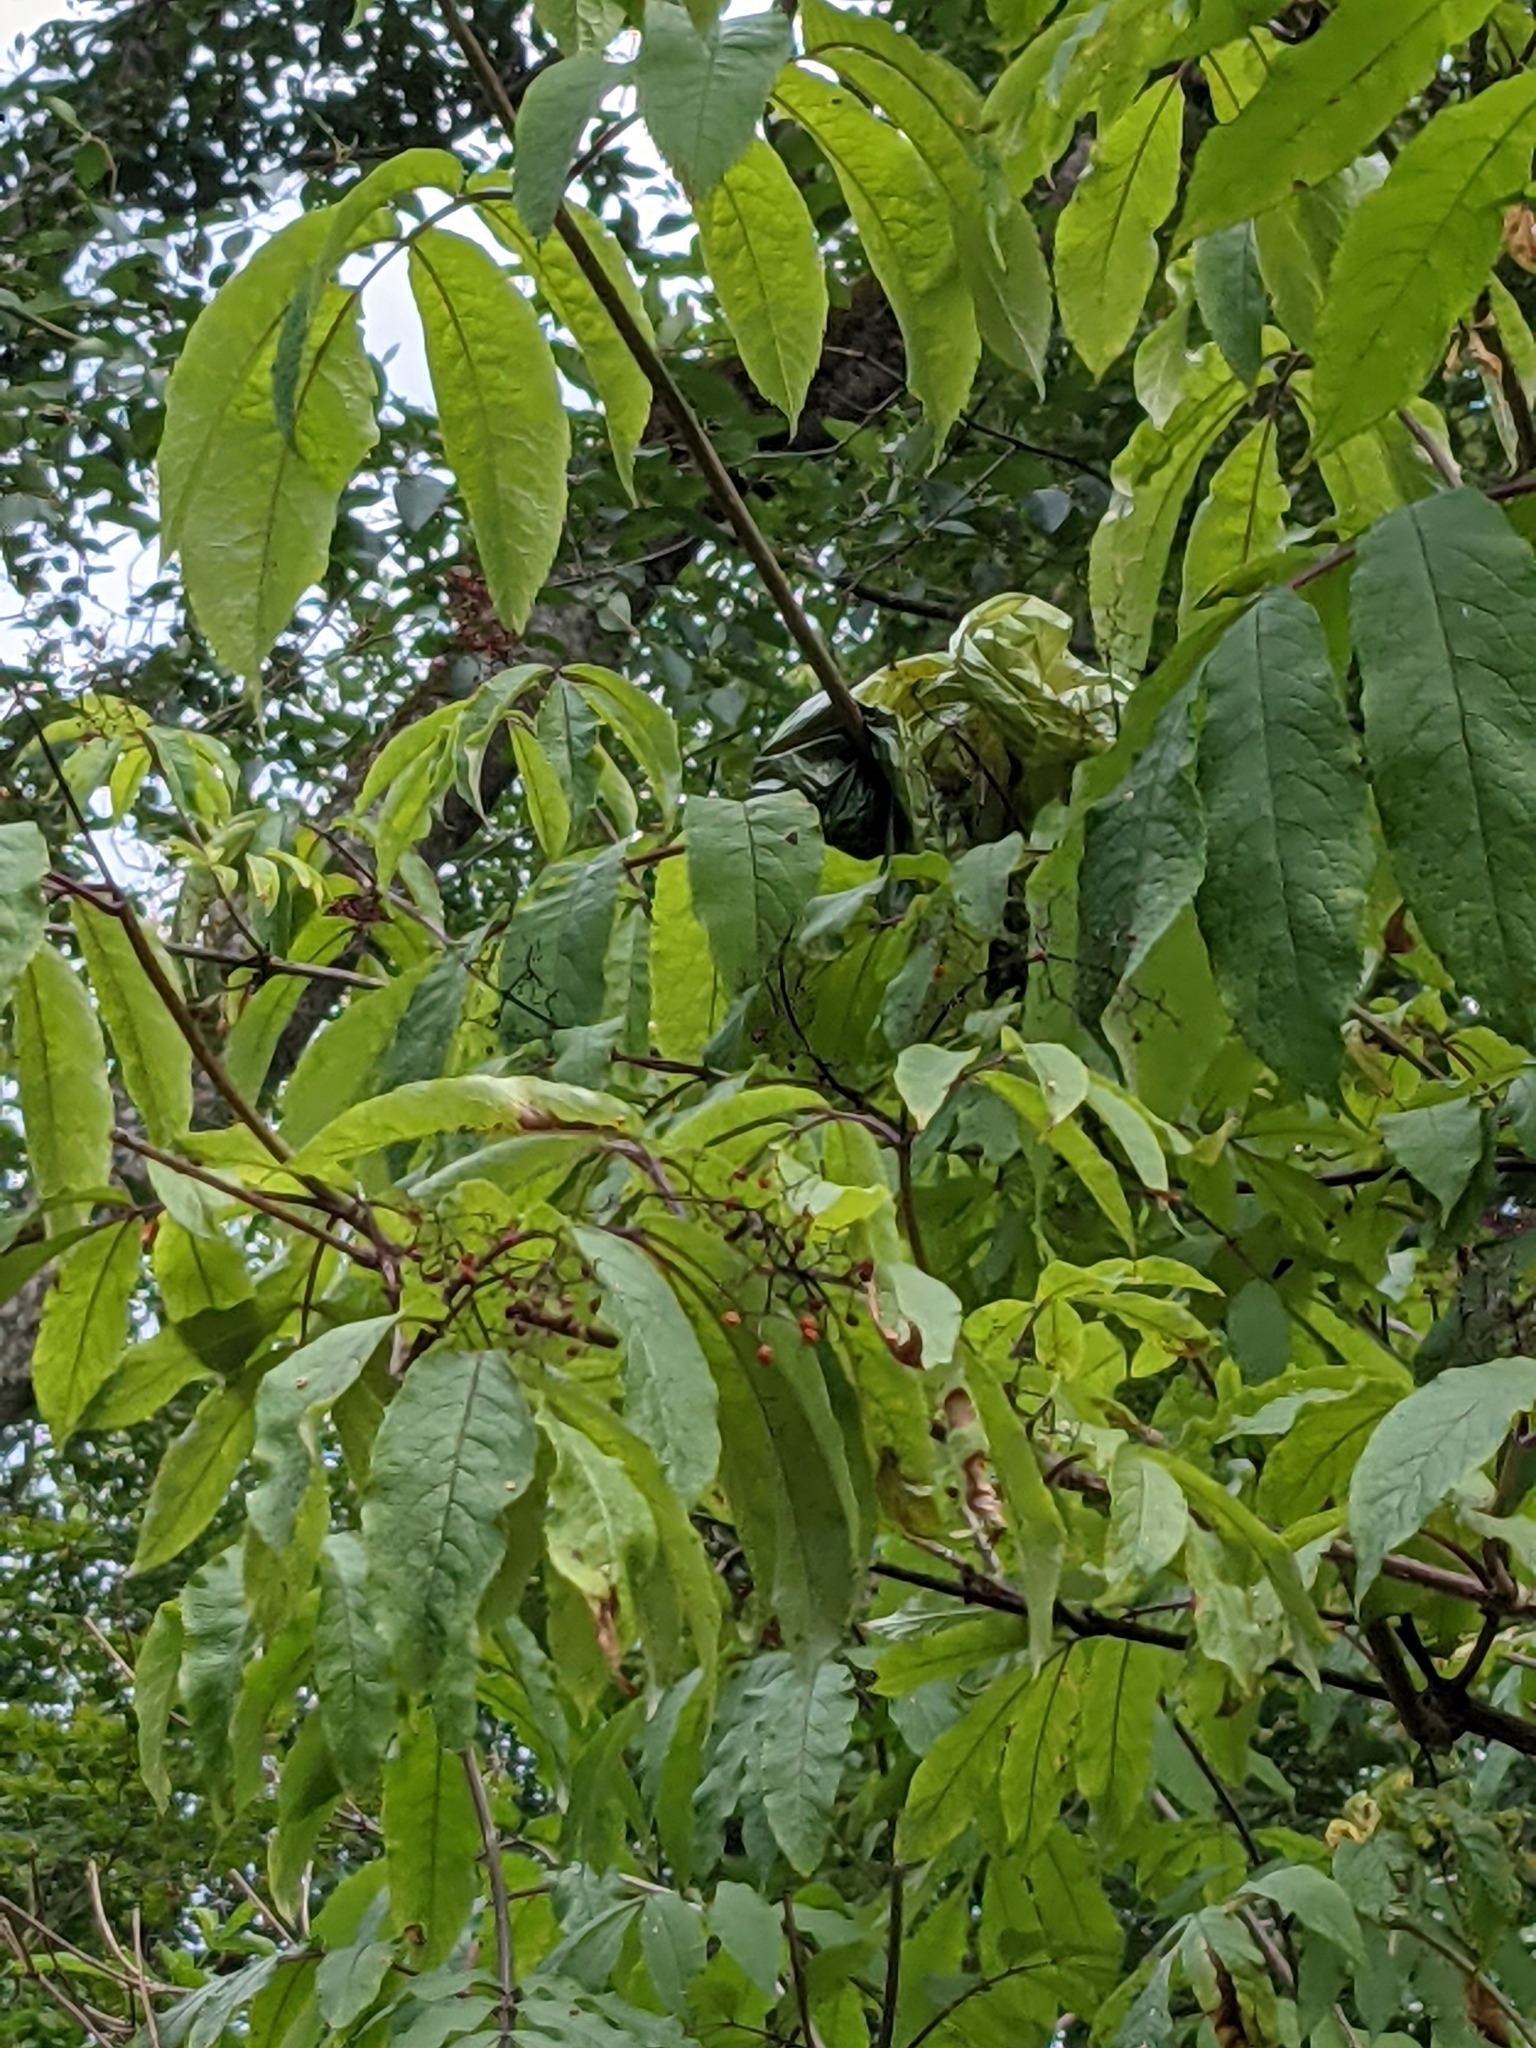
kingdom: Plantae
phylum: Tracheophyta
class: Magnoliopsida
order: Dipsacales
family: Viburnaceae
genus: Sambucus
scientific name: Sambucus racemosa
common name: Red-berried elder
